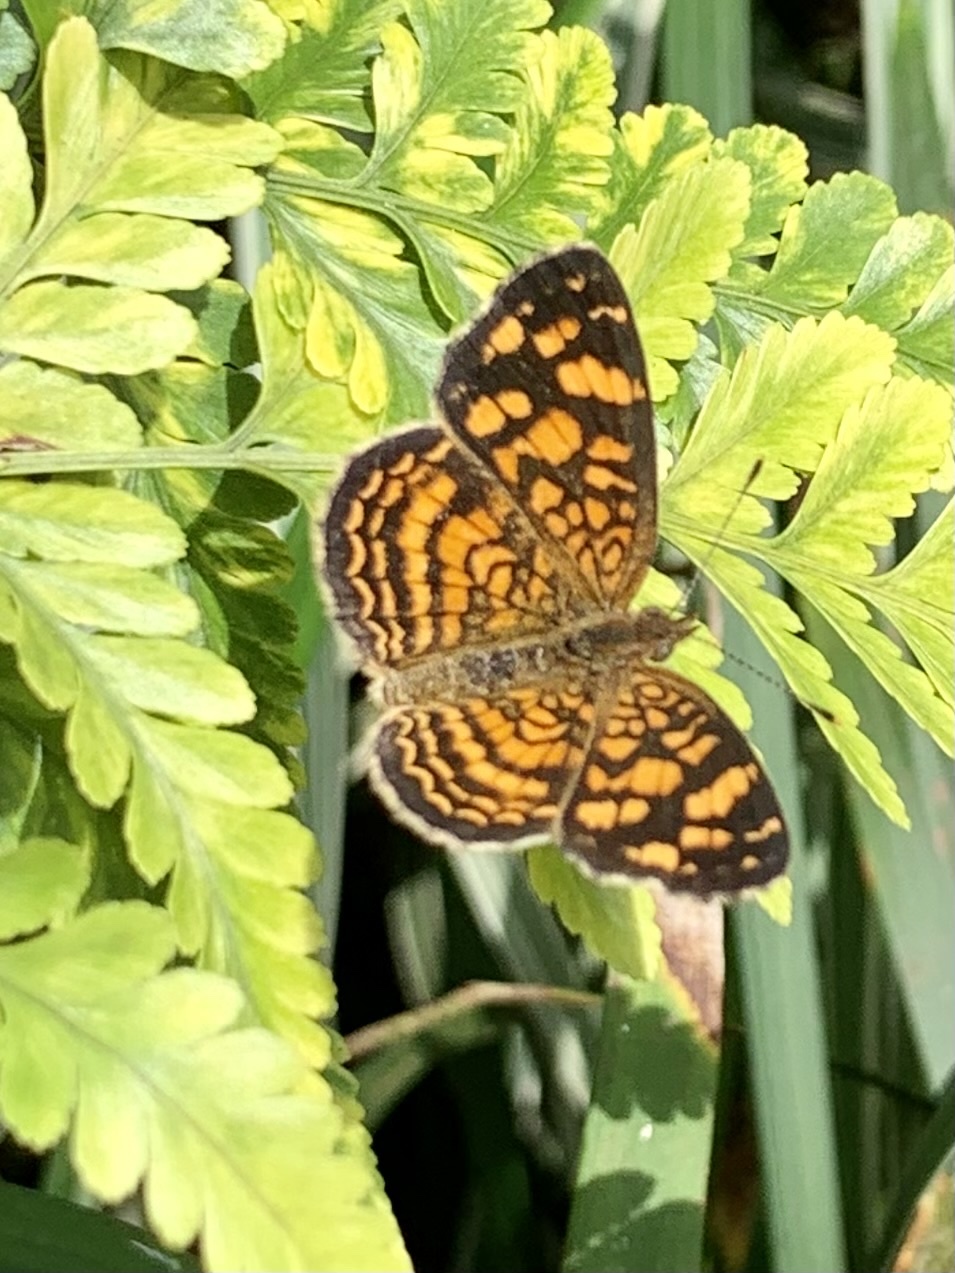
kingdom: Animalia
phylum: Arthropoda
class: Insecta
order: Lepidoptera
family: Nymphalidae
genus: Anthanassa
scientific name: Anthanassa hermas
